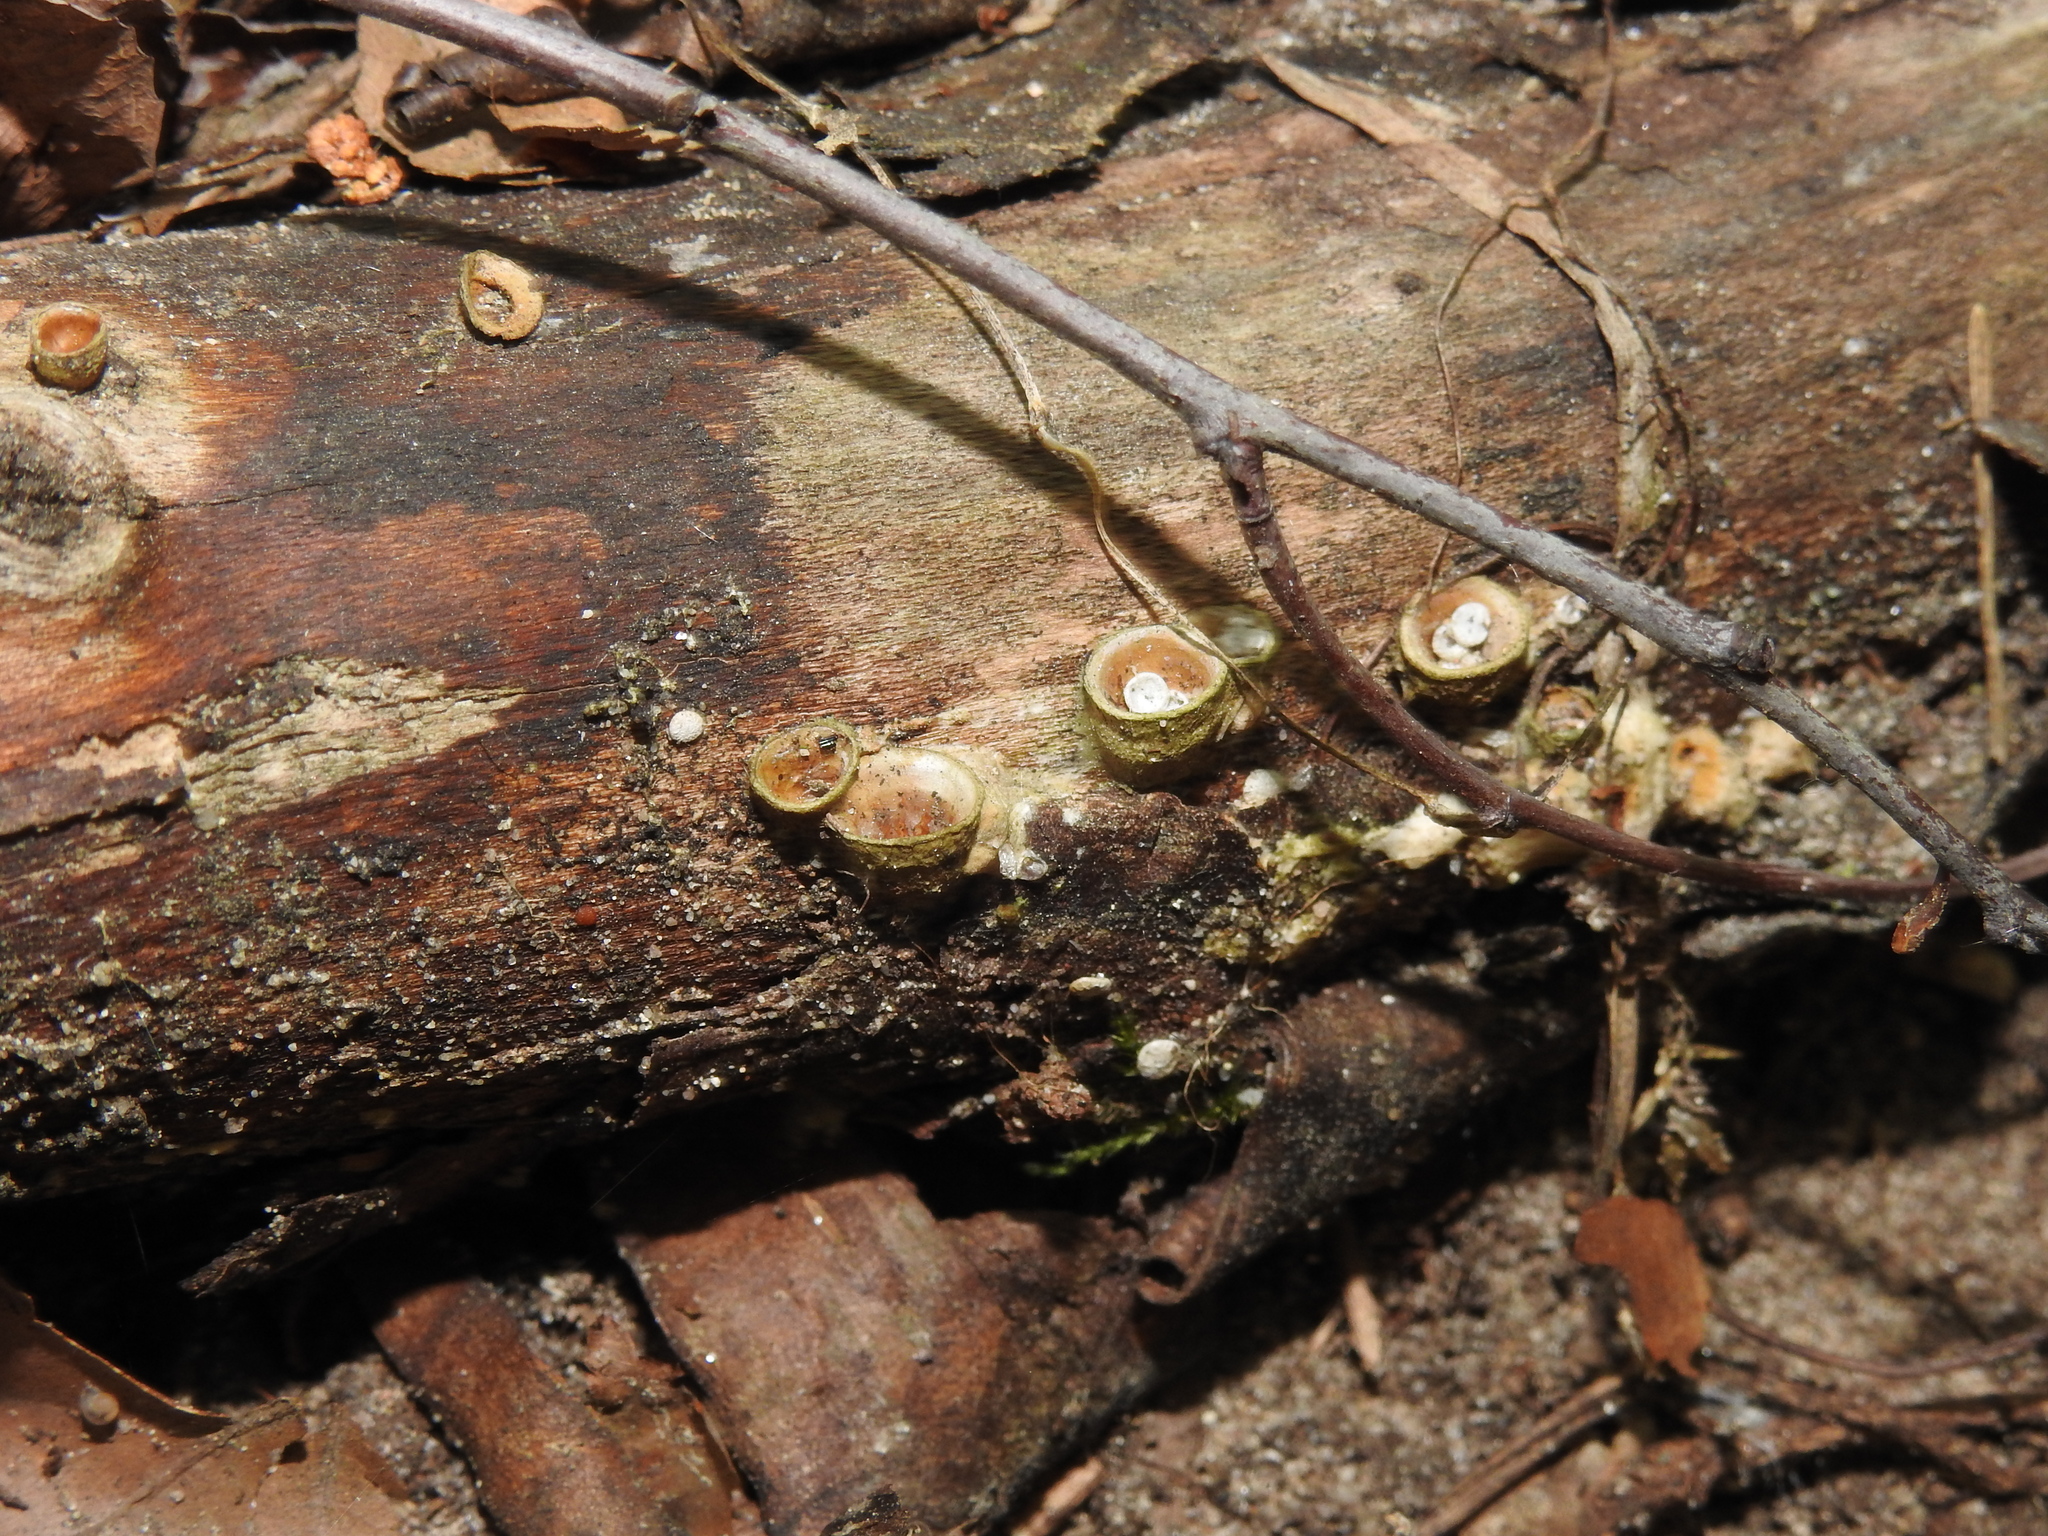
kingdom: Fungi
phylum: Basidiomycota
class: Agaricomycetes
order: Agaricales
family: Nidulariaceae
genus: Crucibulum
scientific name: Crucibulum laeve
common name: Common bird's nest
